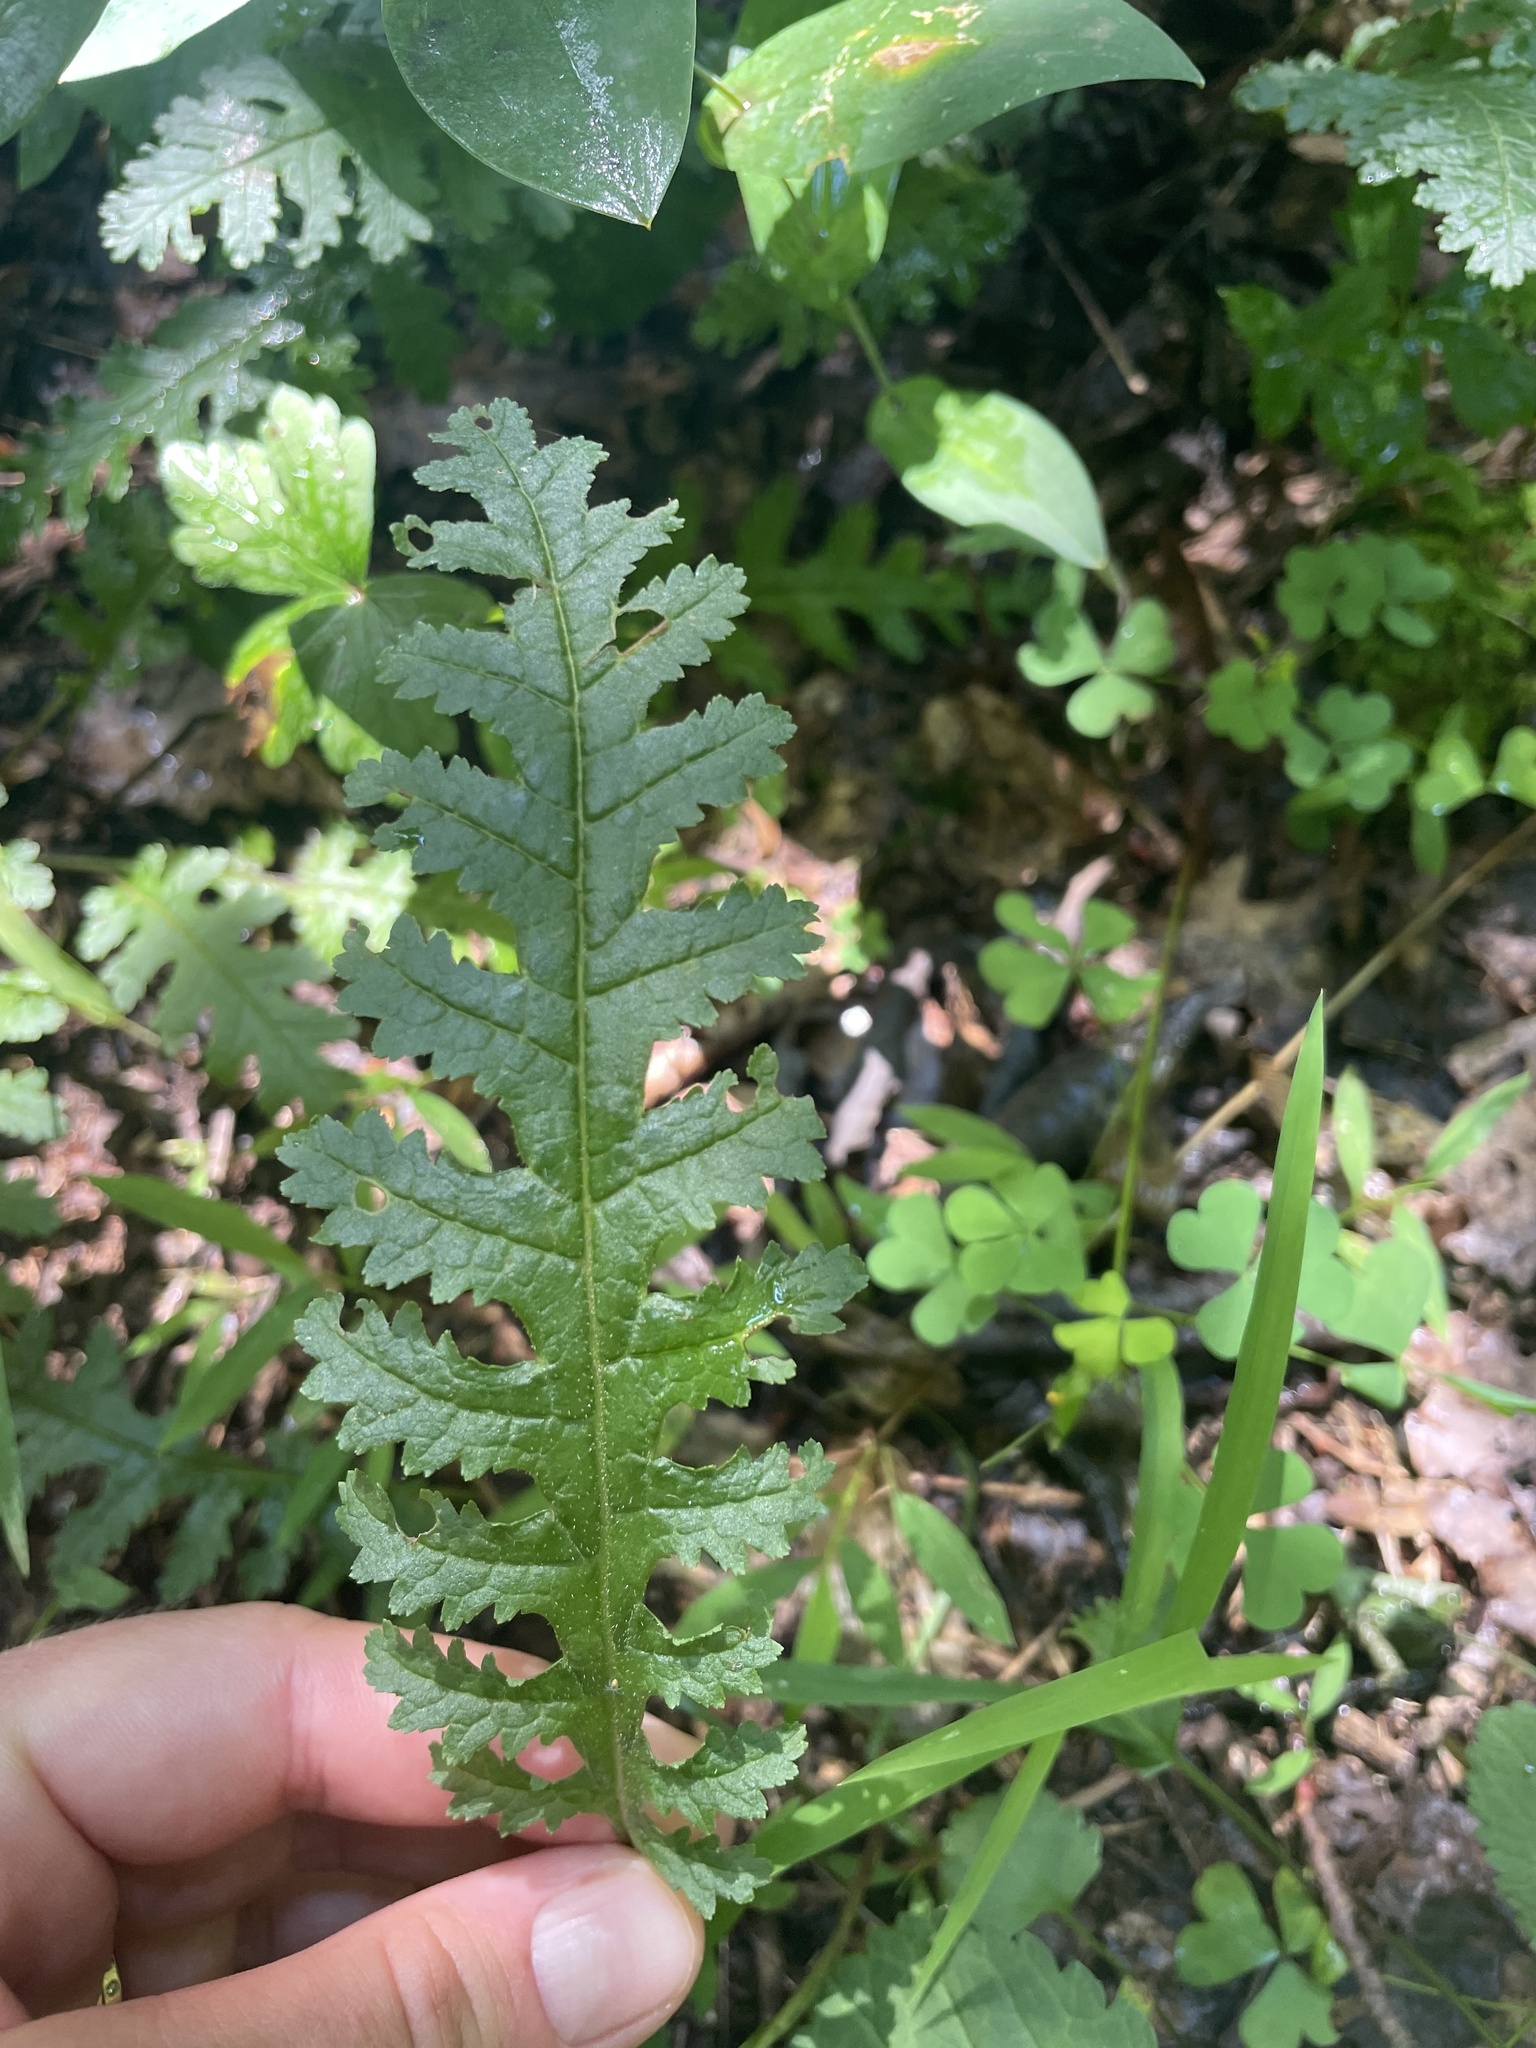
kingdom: Plantae
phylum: Tracheophyta
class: Magnoliopsida
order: Lamiales
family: Orobanchaceae
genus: Pedicularis
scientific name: Pedicularis canadensis
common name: Early lousewort
